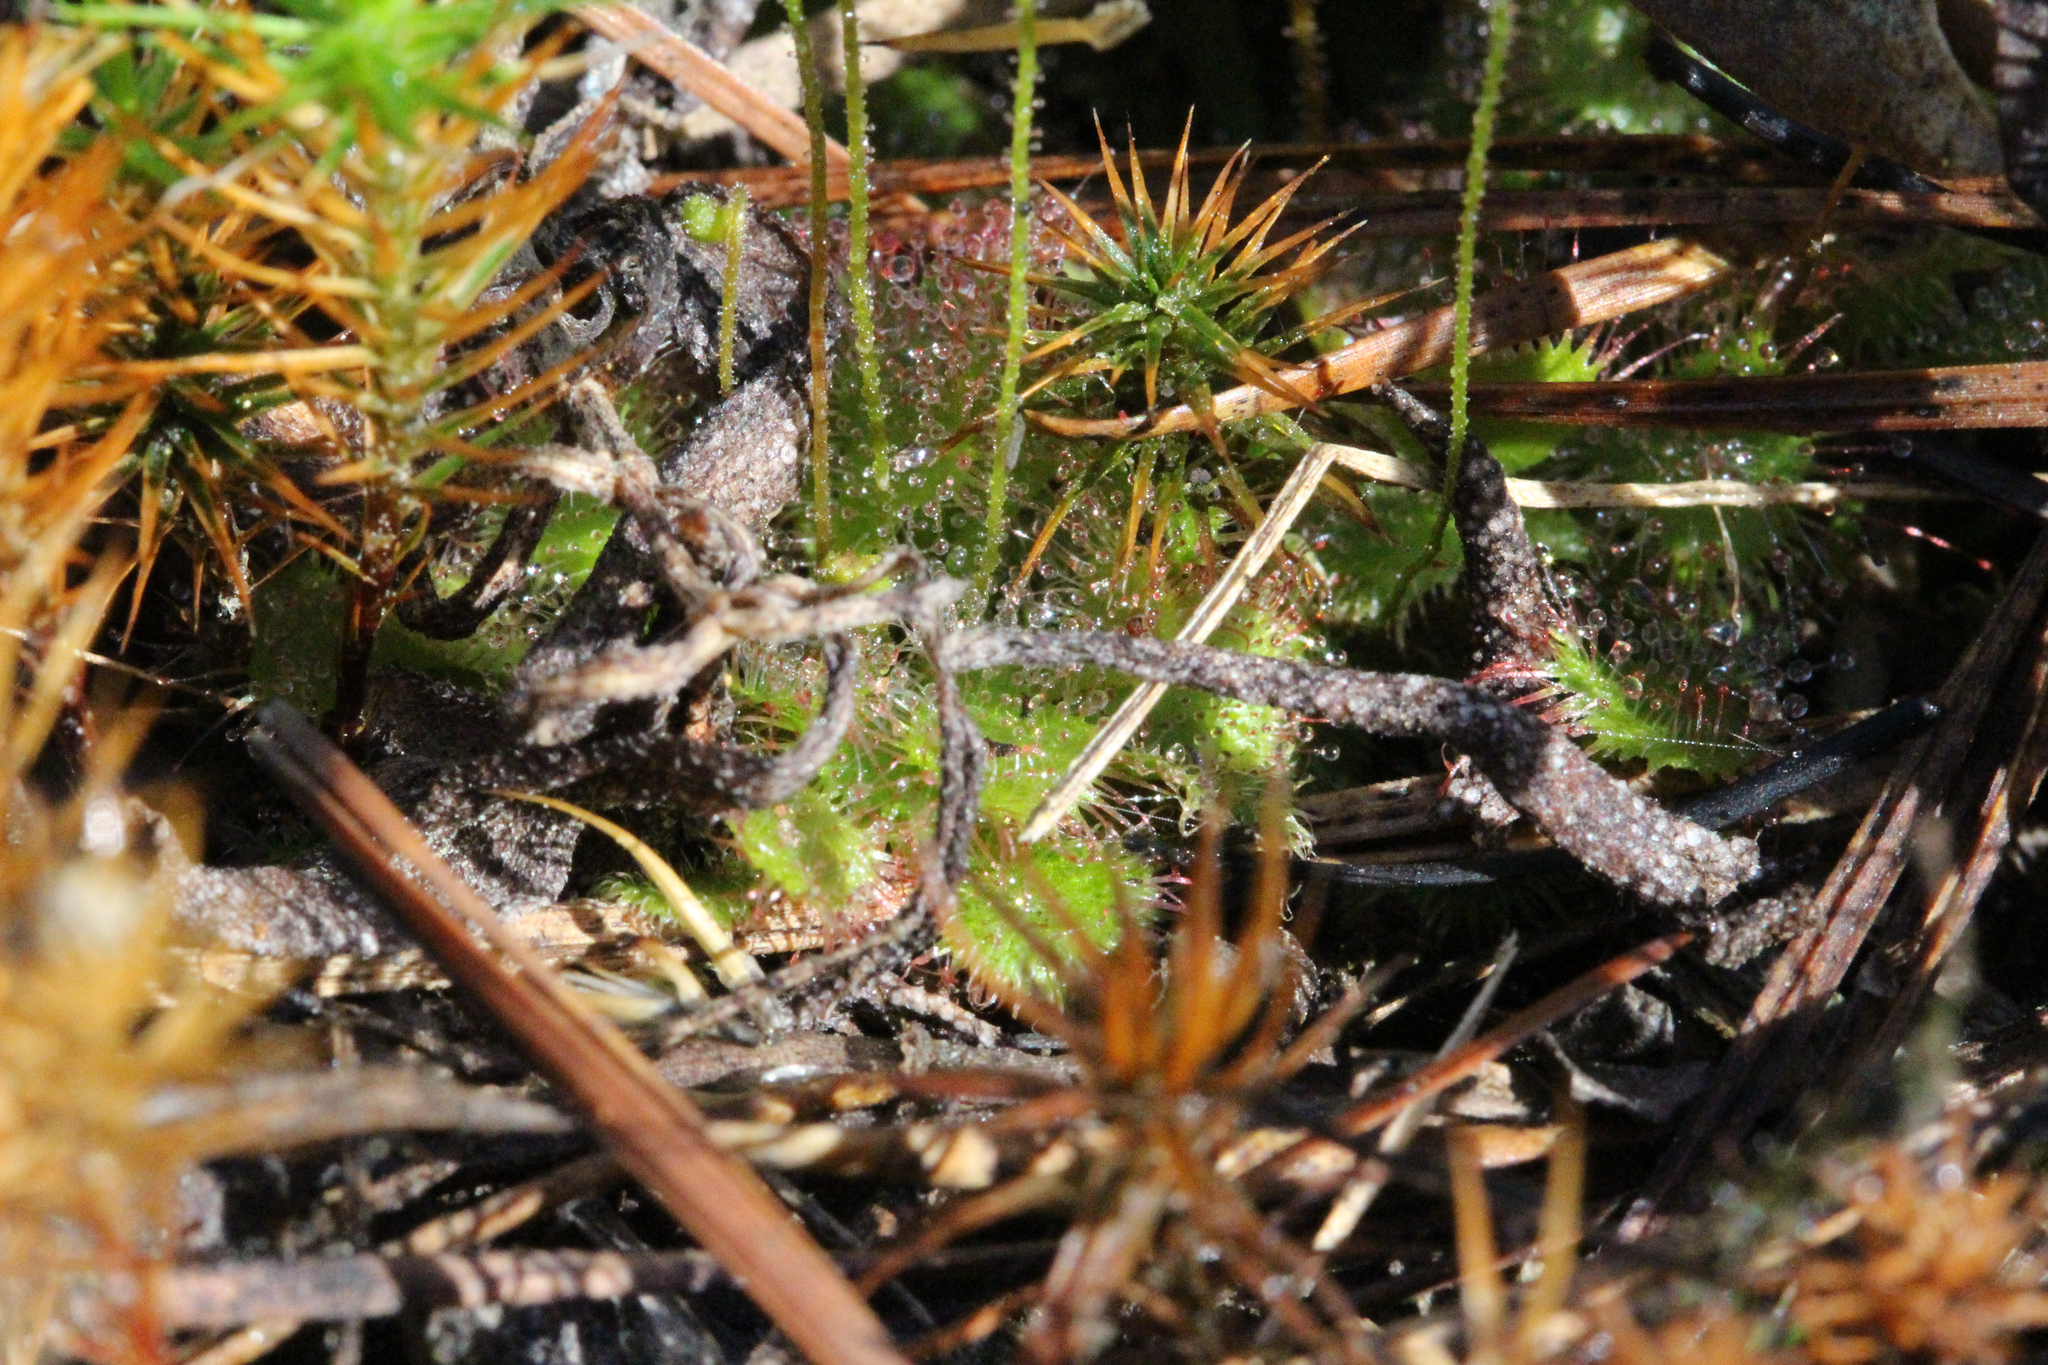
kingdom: Plantae
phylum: Tracheophyta
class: Magnoliopsida
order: Caryophyllales
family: Droseraceae
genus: Drosera
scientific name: Drosera brevifolia
